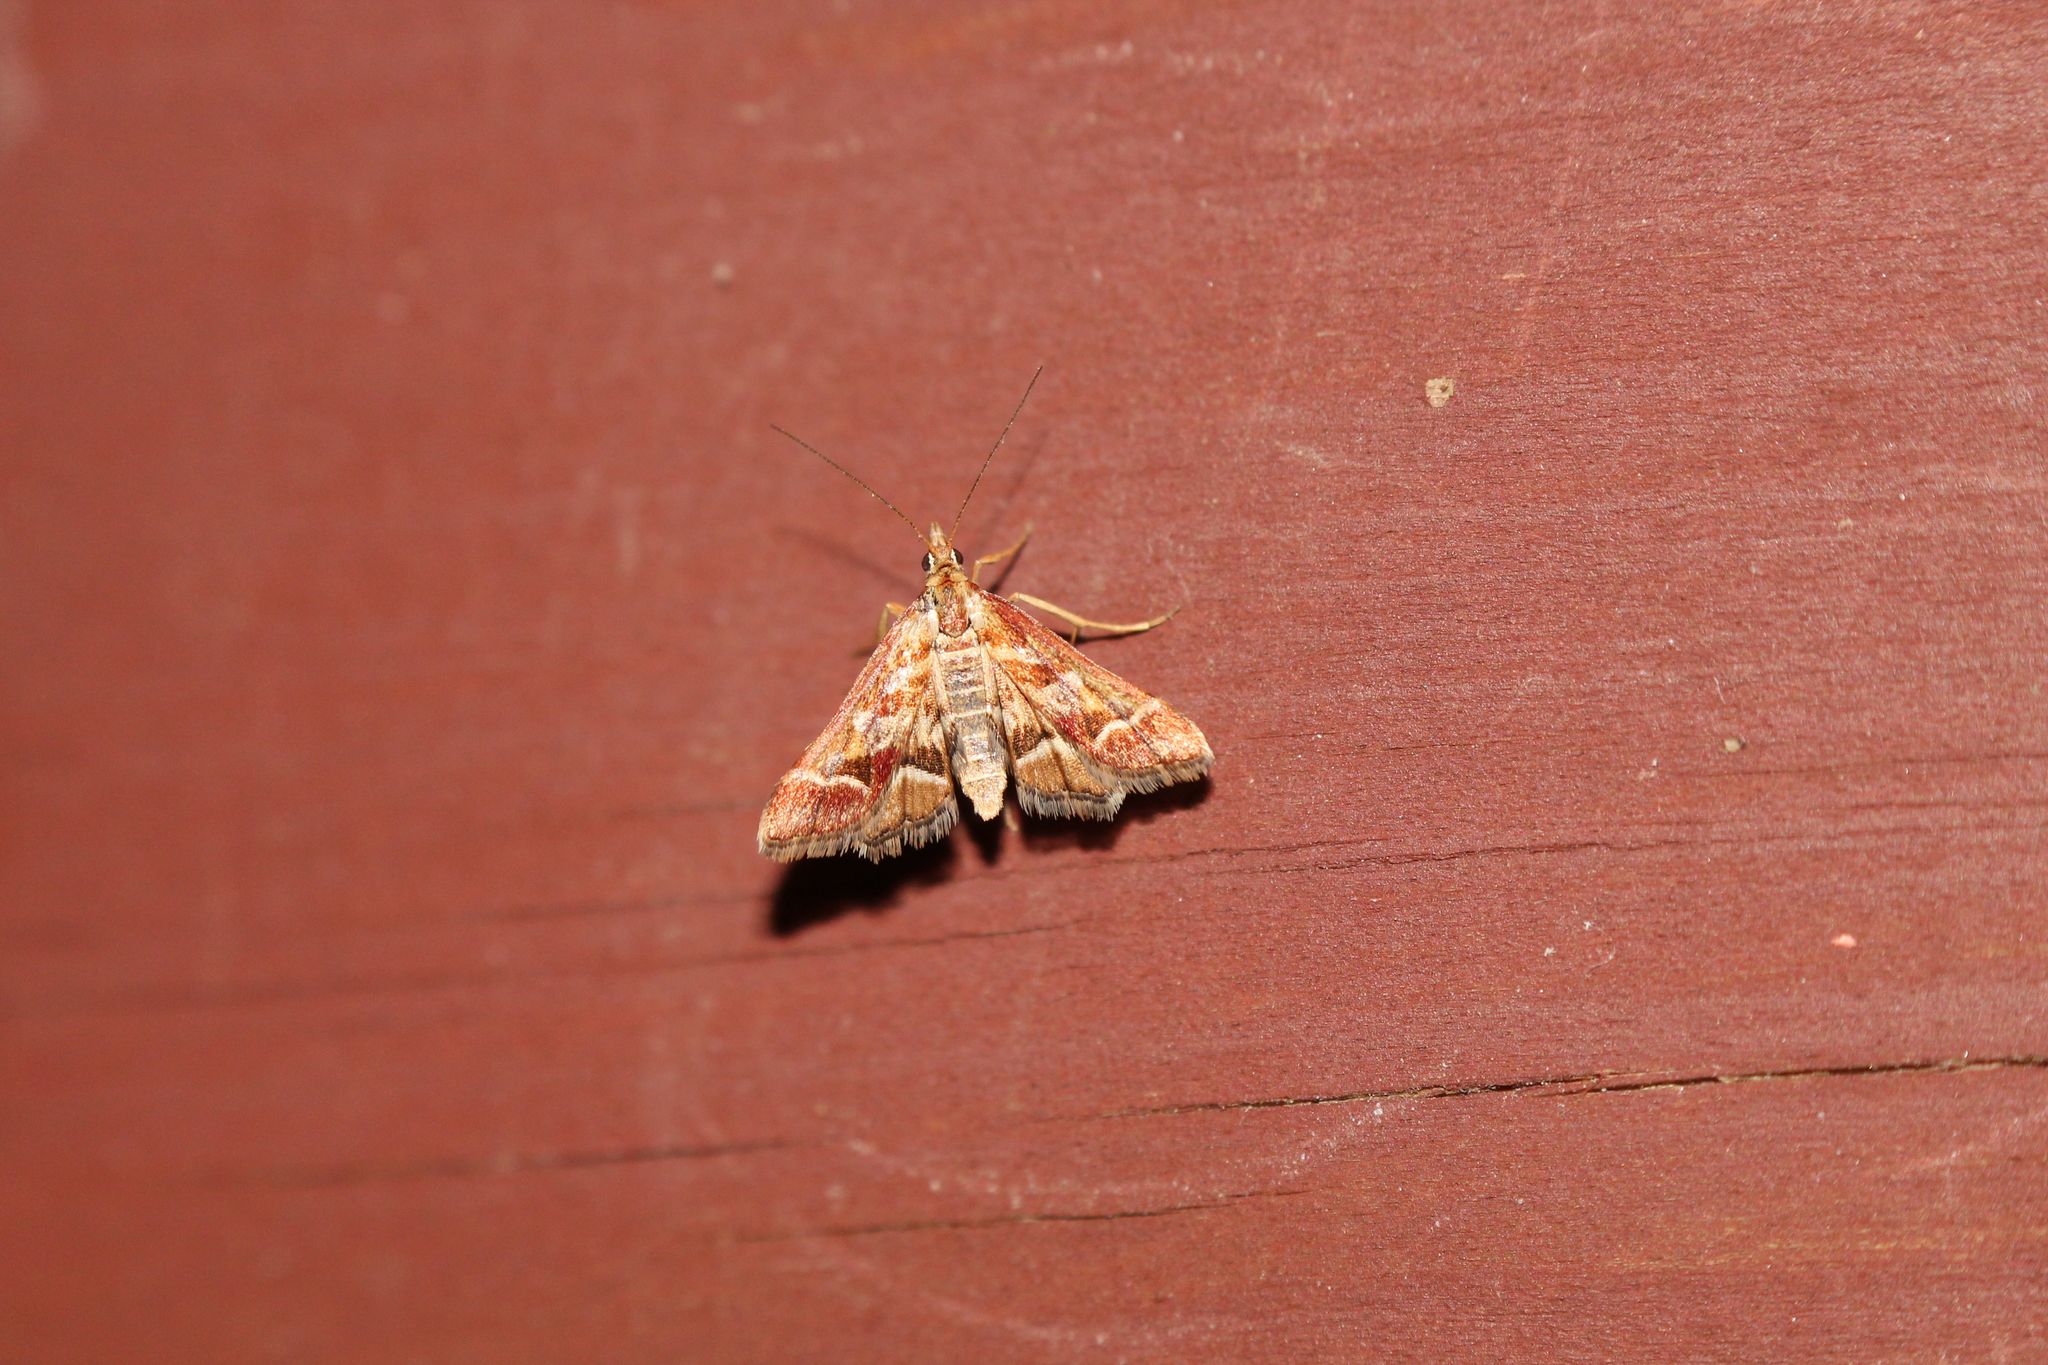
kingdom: Animalia
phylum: Arthropoda
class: Insecta
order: Lepidoptera
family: Crambidae
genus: Diasemia
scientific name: Diasemia grammalis
